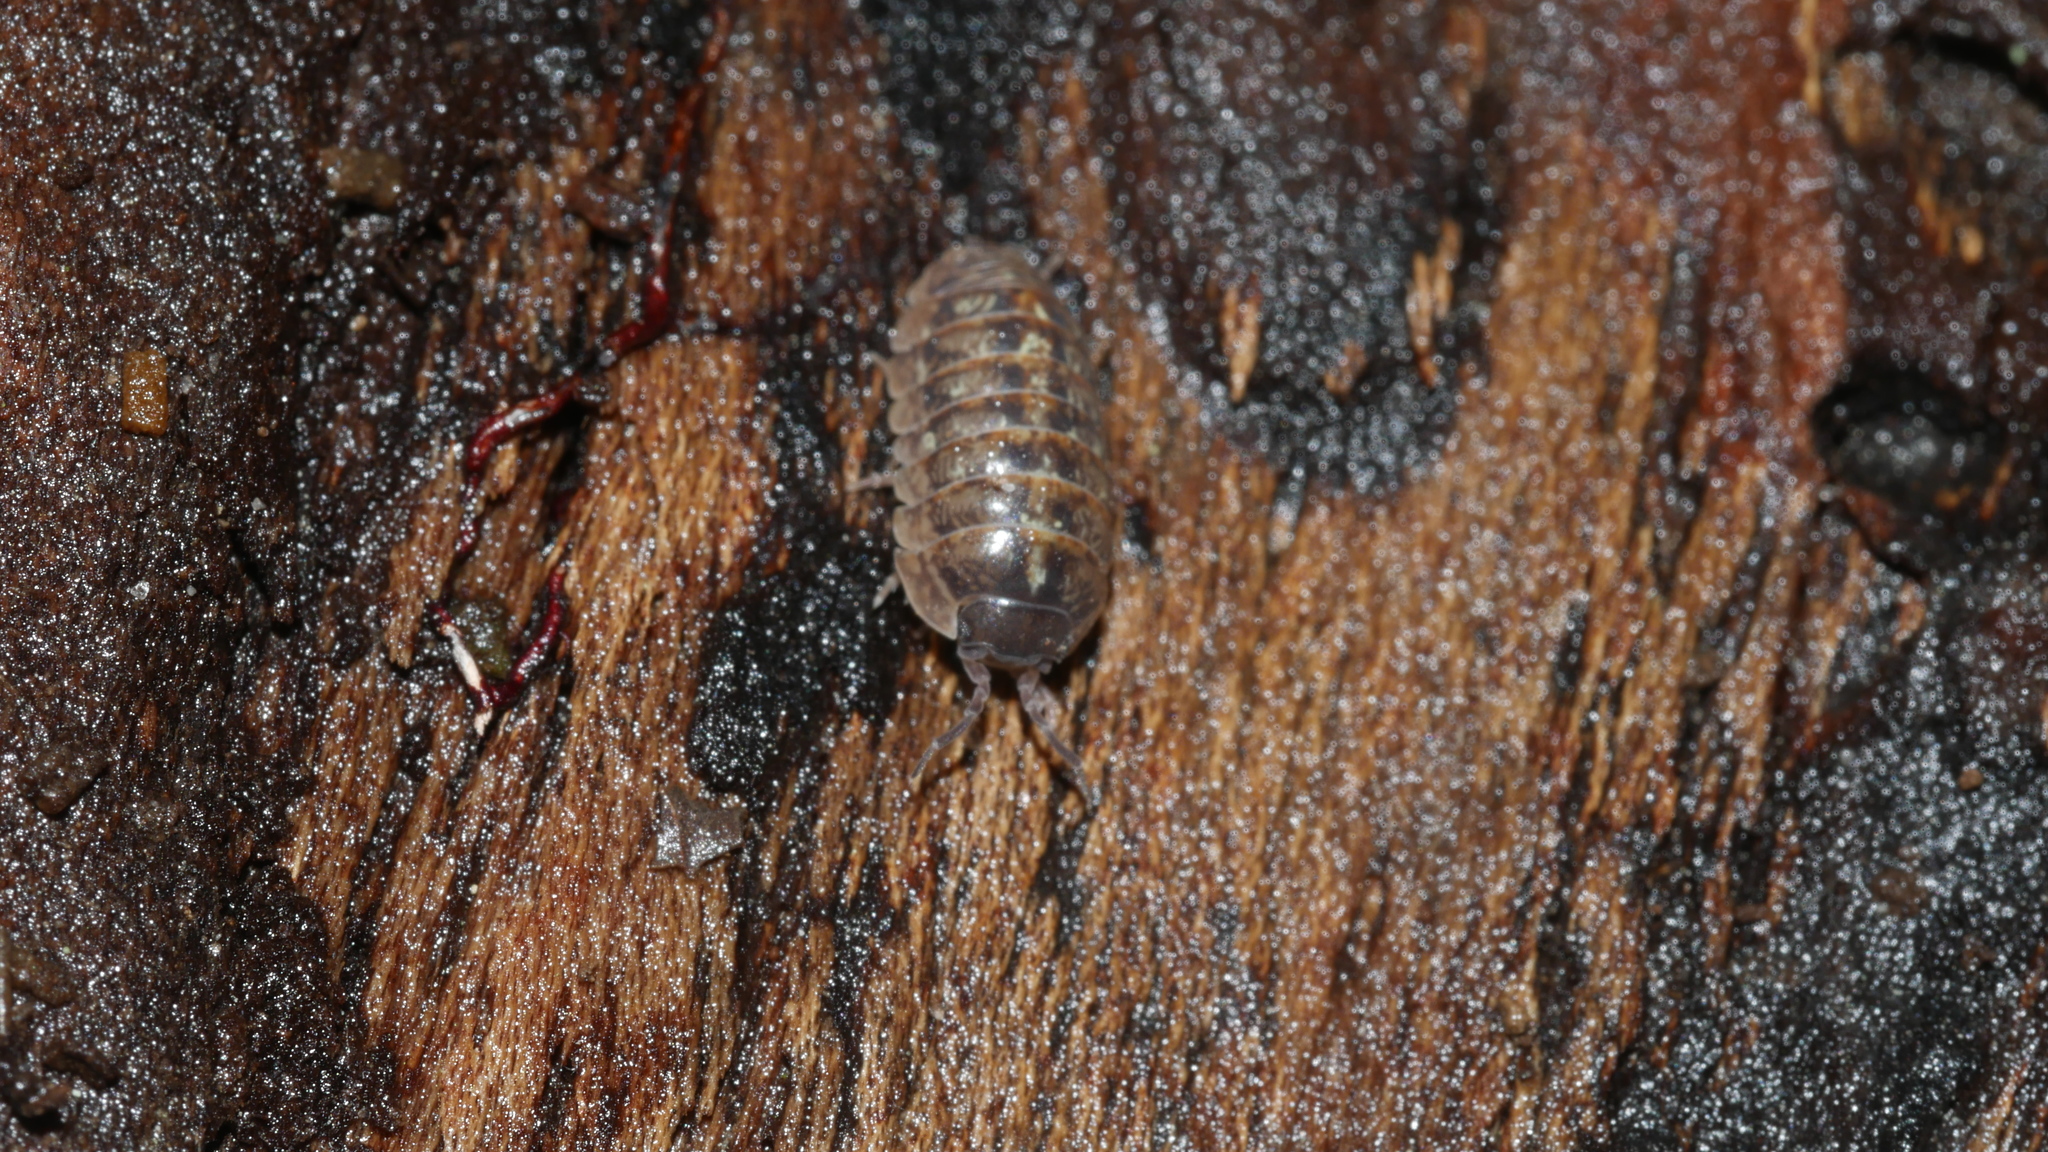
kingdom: Animalia
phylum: Arthropoda
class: Malacostraca
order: Isopoda
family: Armadillidiidae
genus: Armadillidium
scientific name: Armadillidium vulgare
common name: Common pill woodlouse
